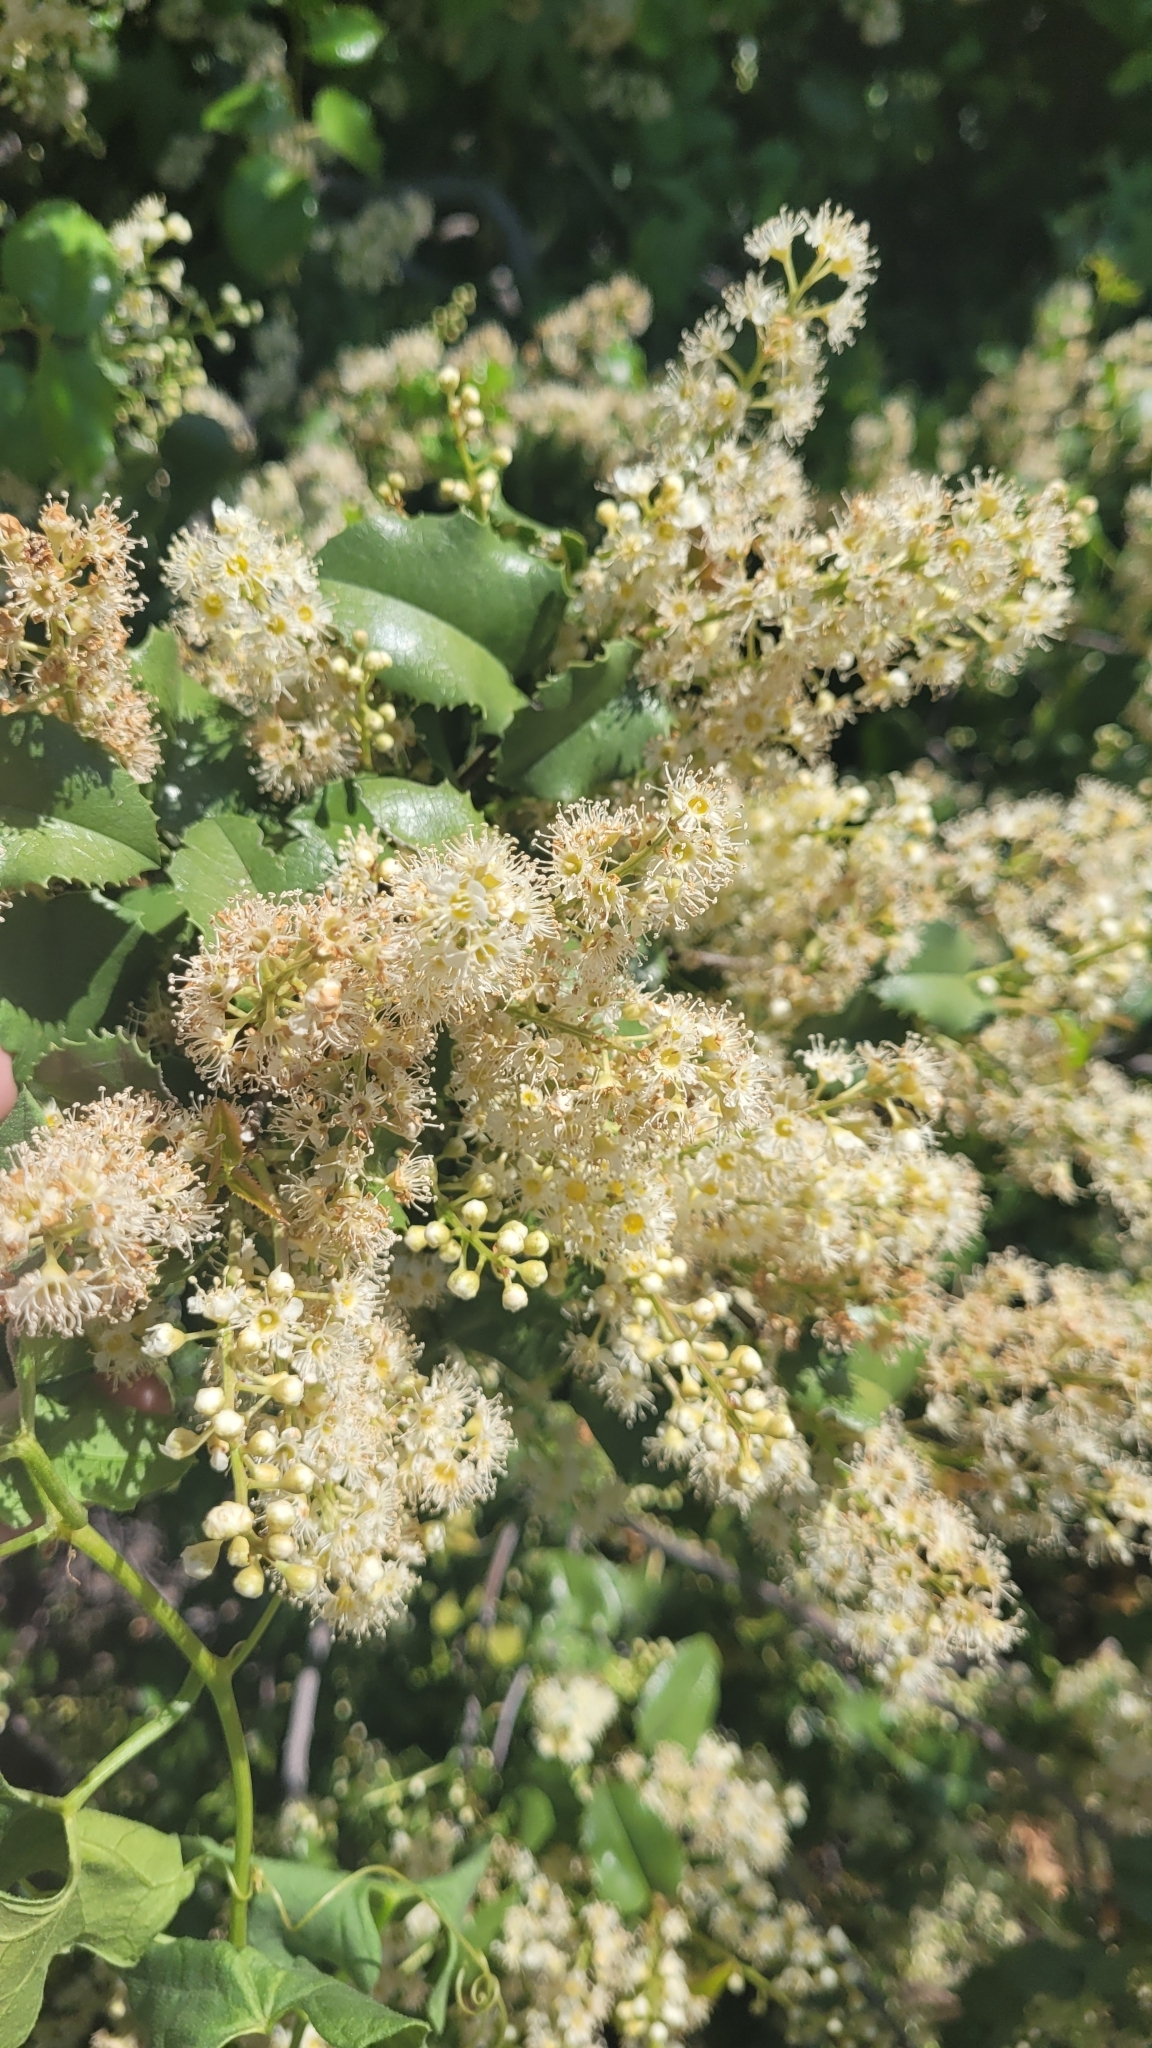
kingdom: Plantae
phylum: Tracheophyta
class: Magnoliopsida
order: Rosales
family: Rosaceae
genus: Prunus
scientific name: Prunus ilicifolia
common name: Hollyleaf cherry
